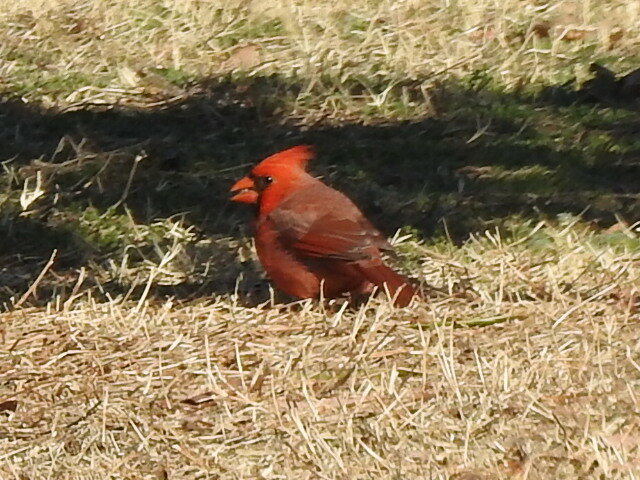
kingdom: Animalia
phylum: Chordata
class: Aves
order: Passeriformes
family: Cardinalidae
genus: Cardinalis
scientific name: Cardinalis cardinalis
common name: Northern cardinal
